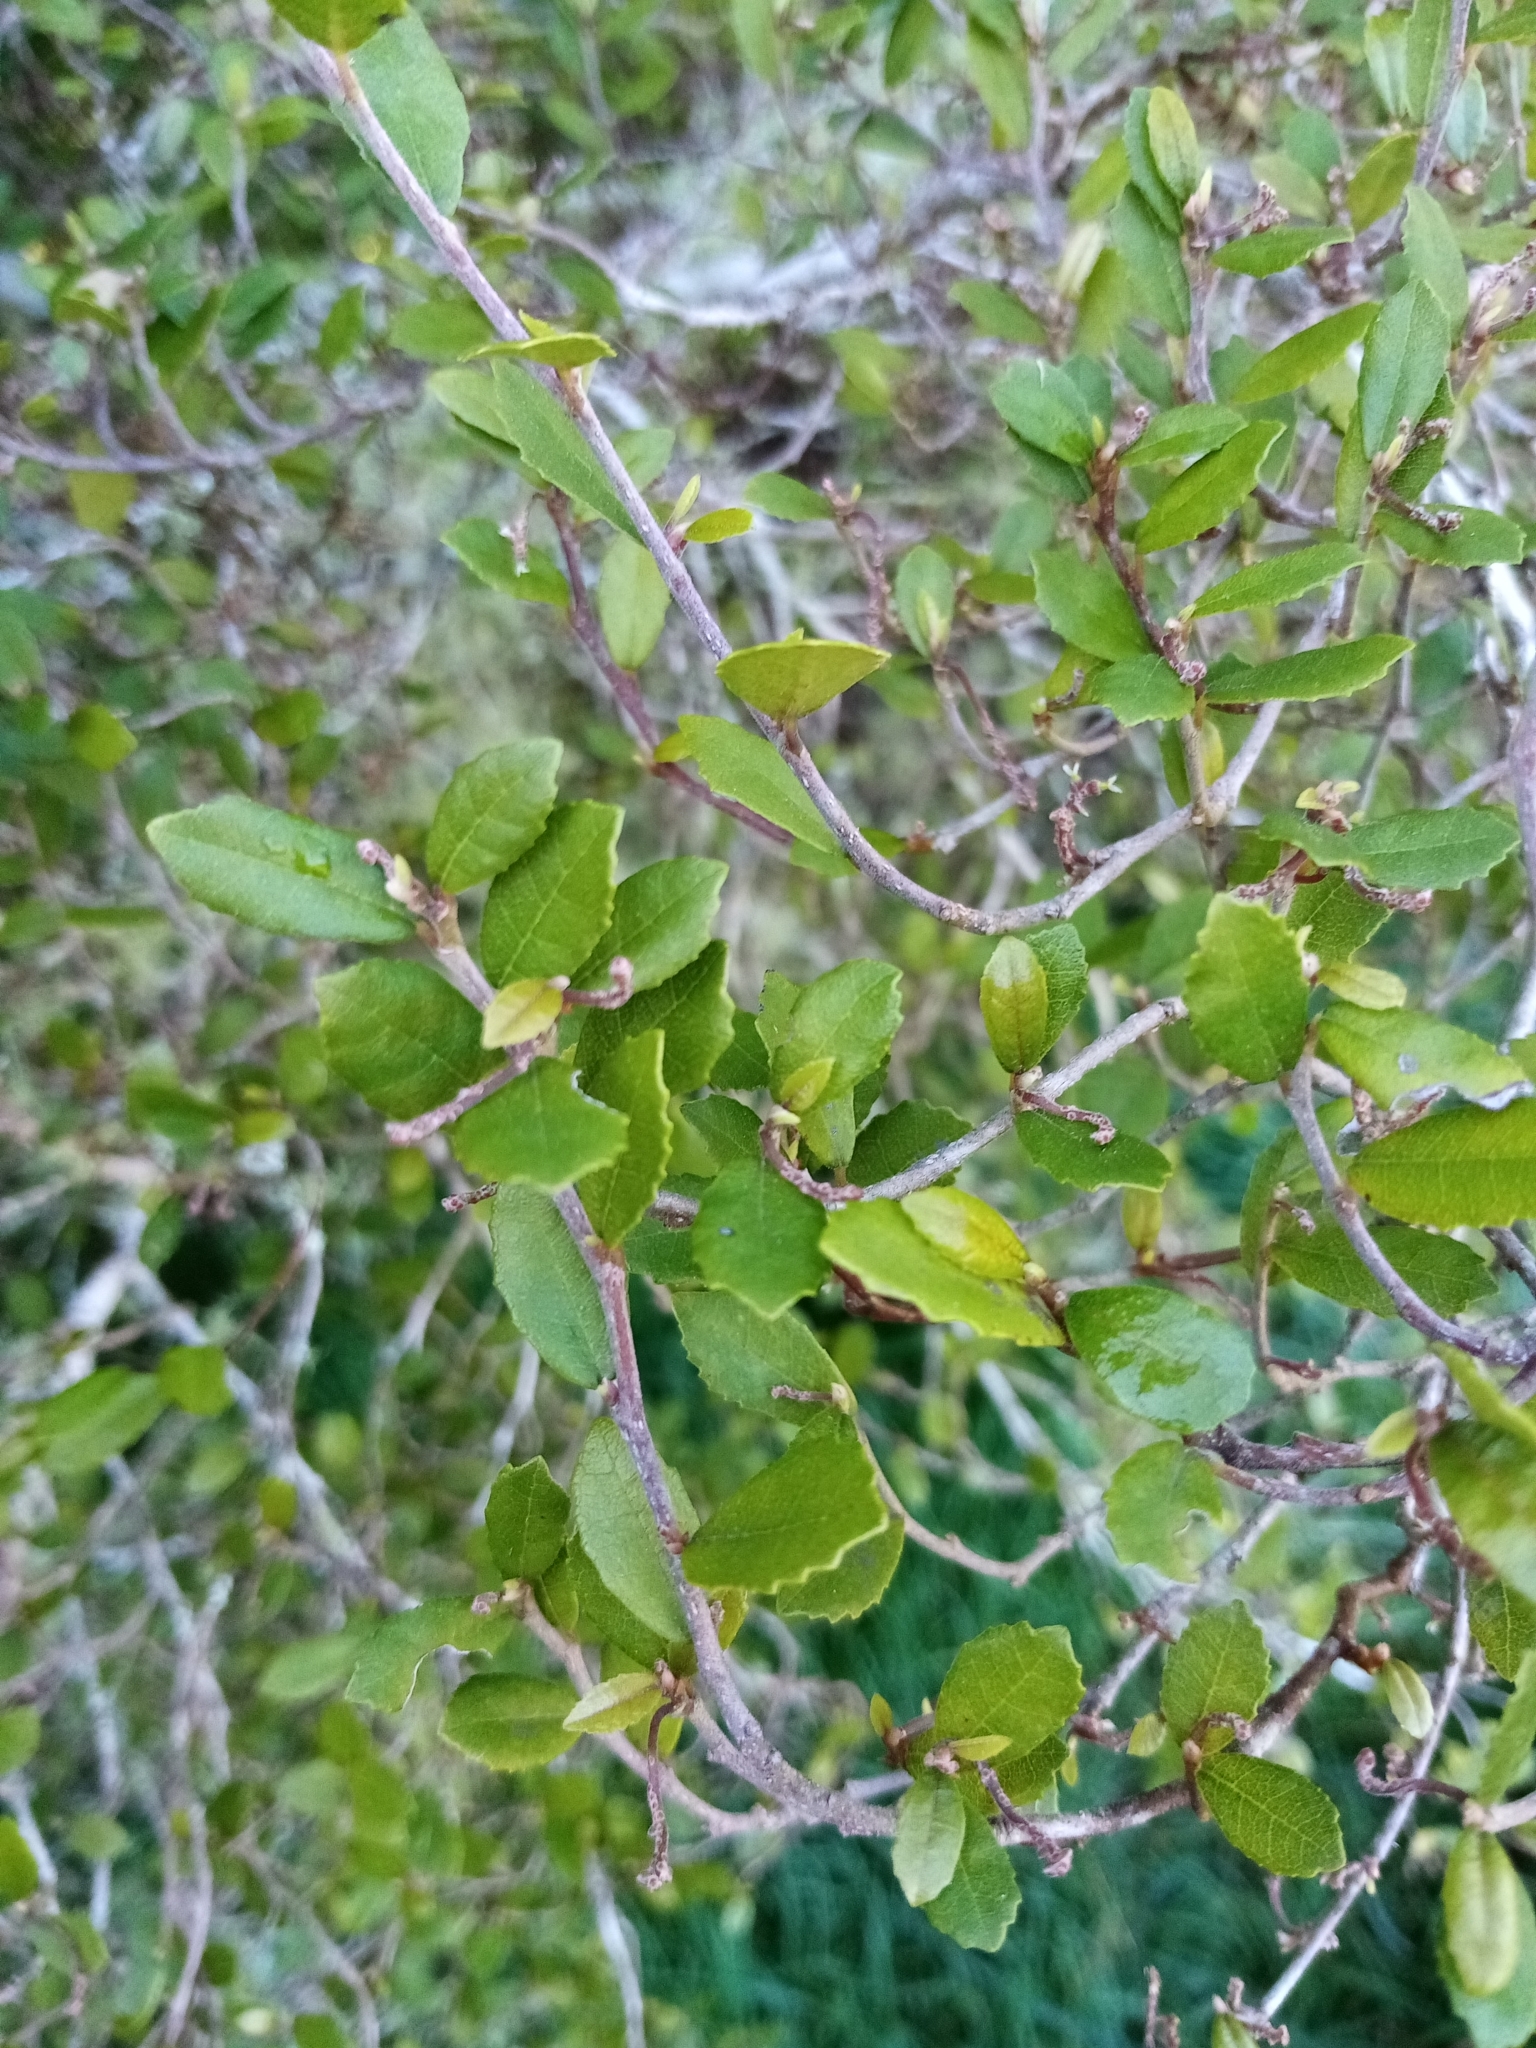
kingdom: Plantae
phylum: Tracheophyta
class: Magnoliopsida
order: Rosales
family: Moraceae
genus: Paratrophis
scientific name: Paratrophis microphylla
